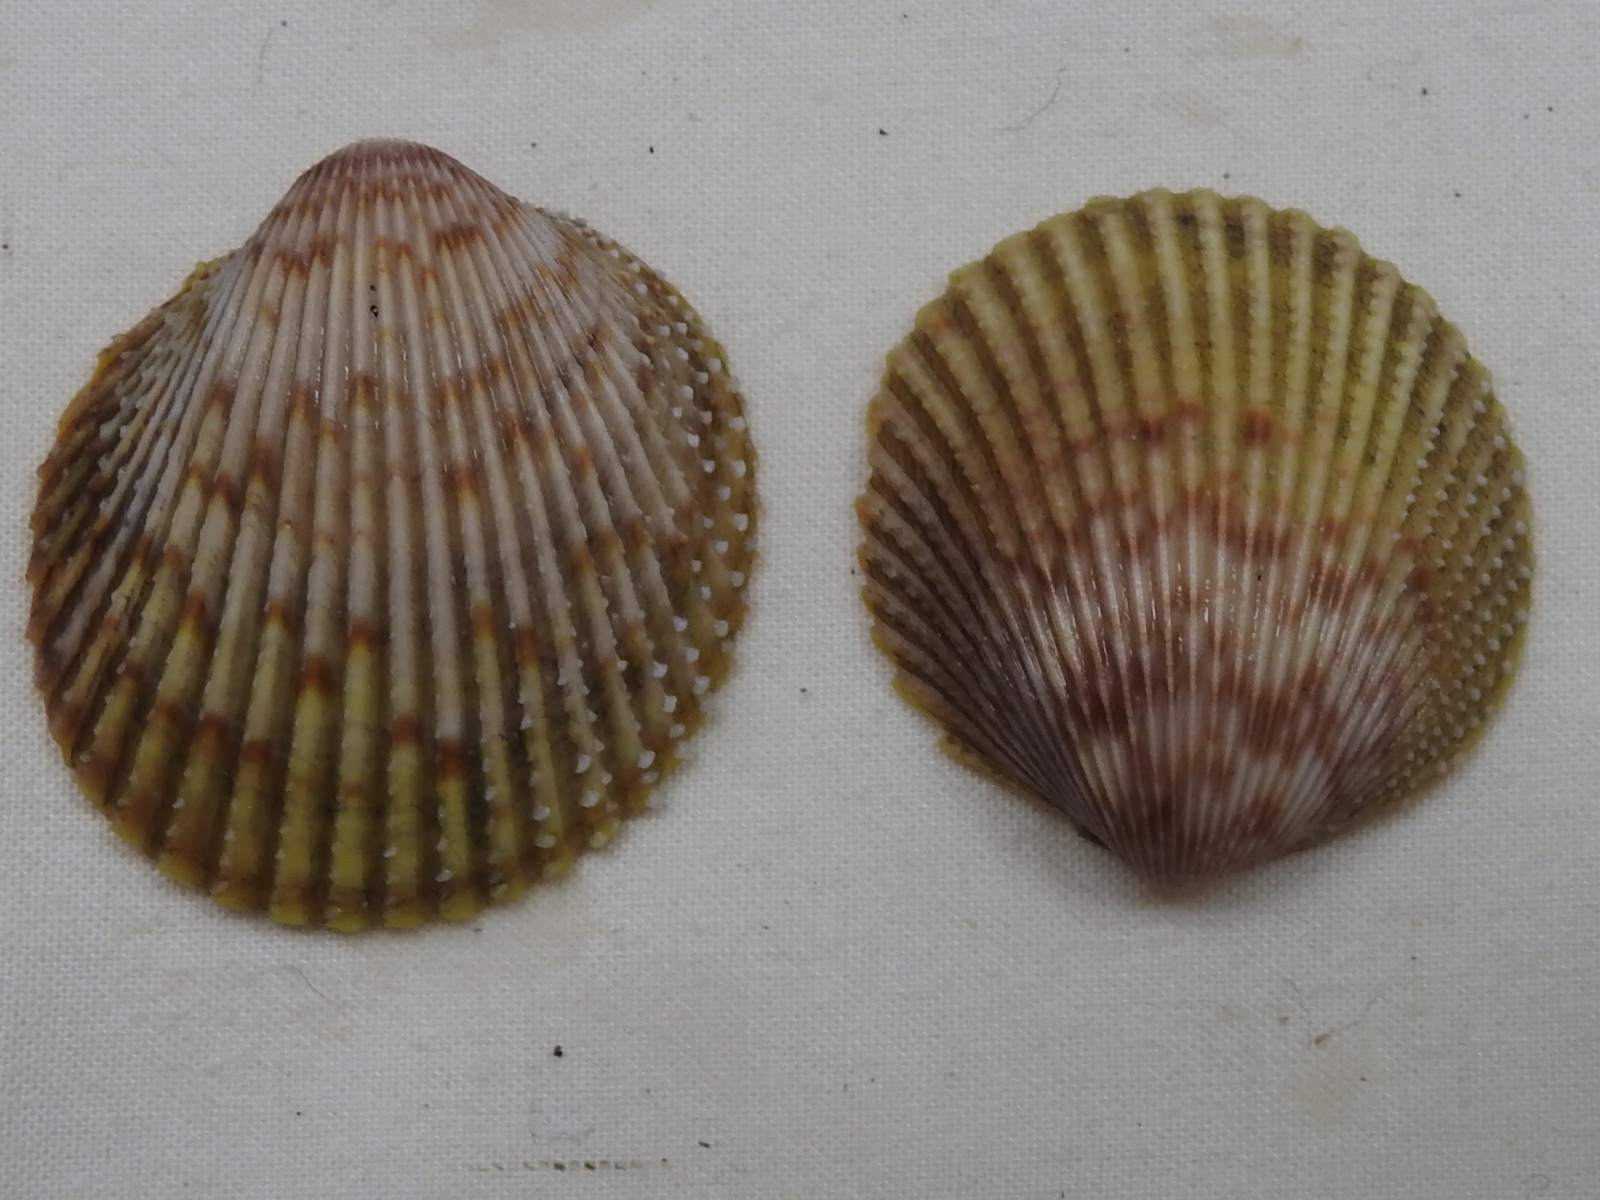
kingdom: Animalia
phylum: Mollusca
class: Bivalvia
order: Cardiida
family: Cardiidae
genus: Dallocardia
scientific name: Dallocardia muricata
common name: Yellow pricklycockle
